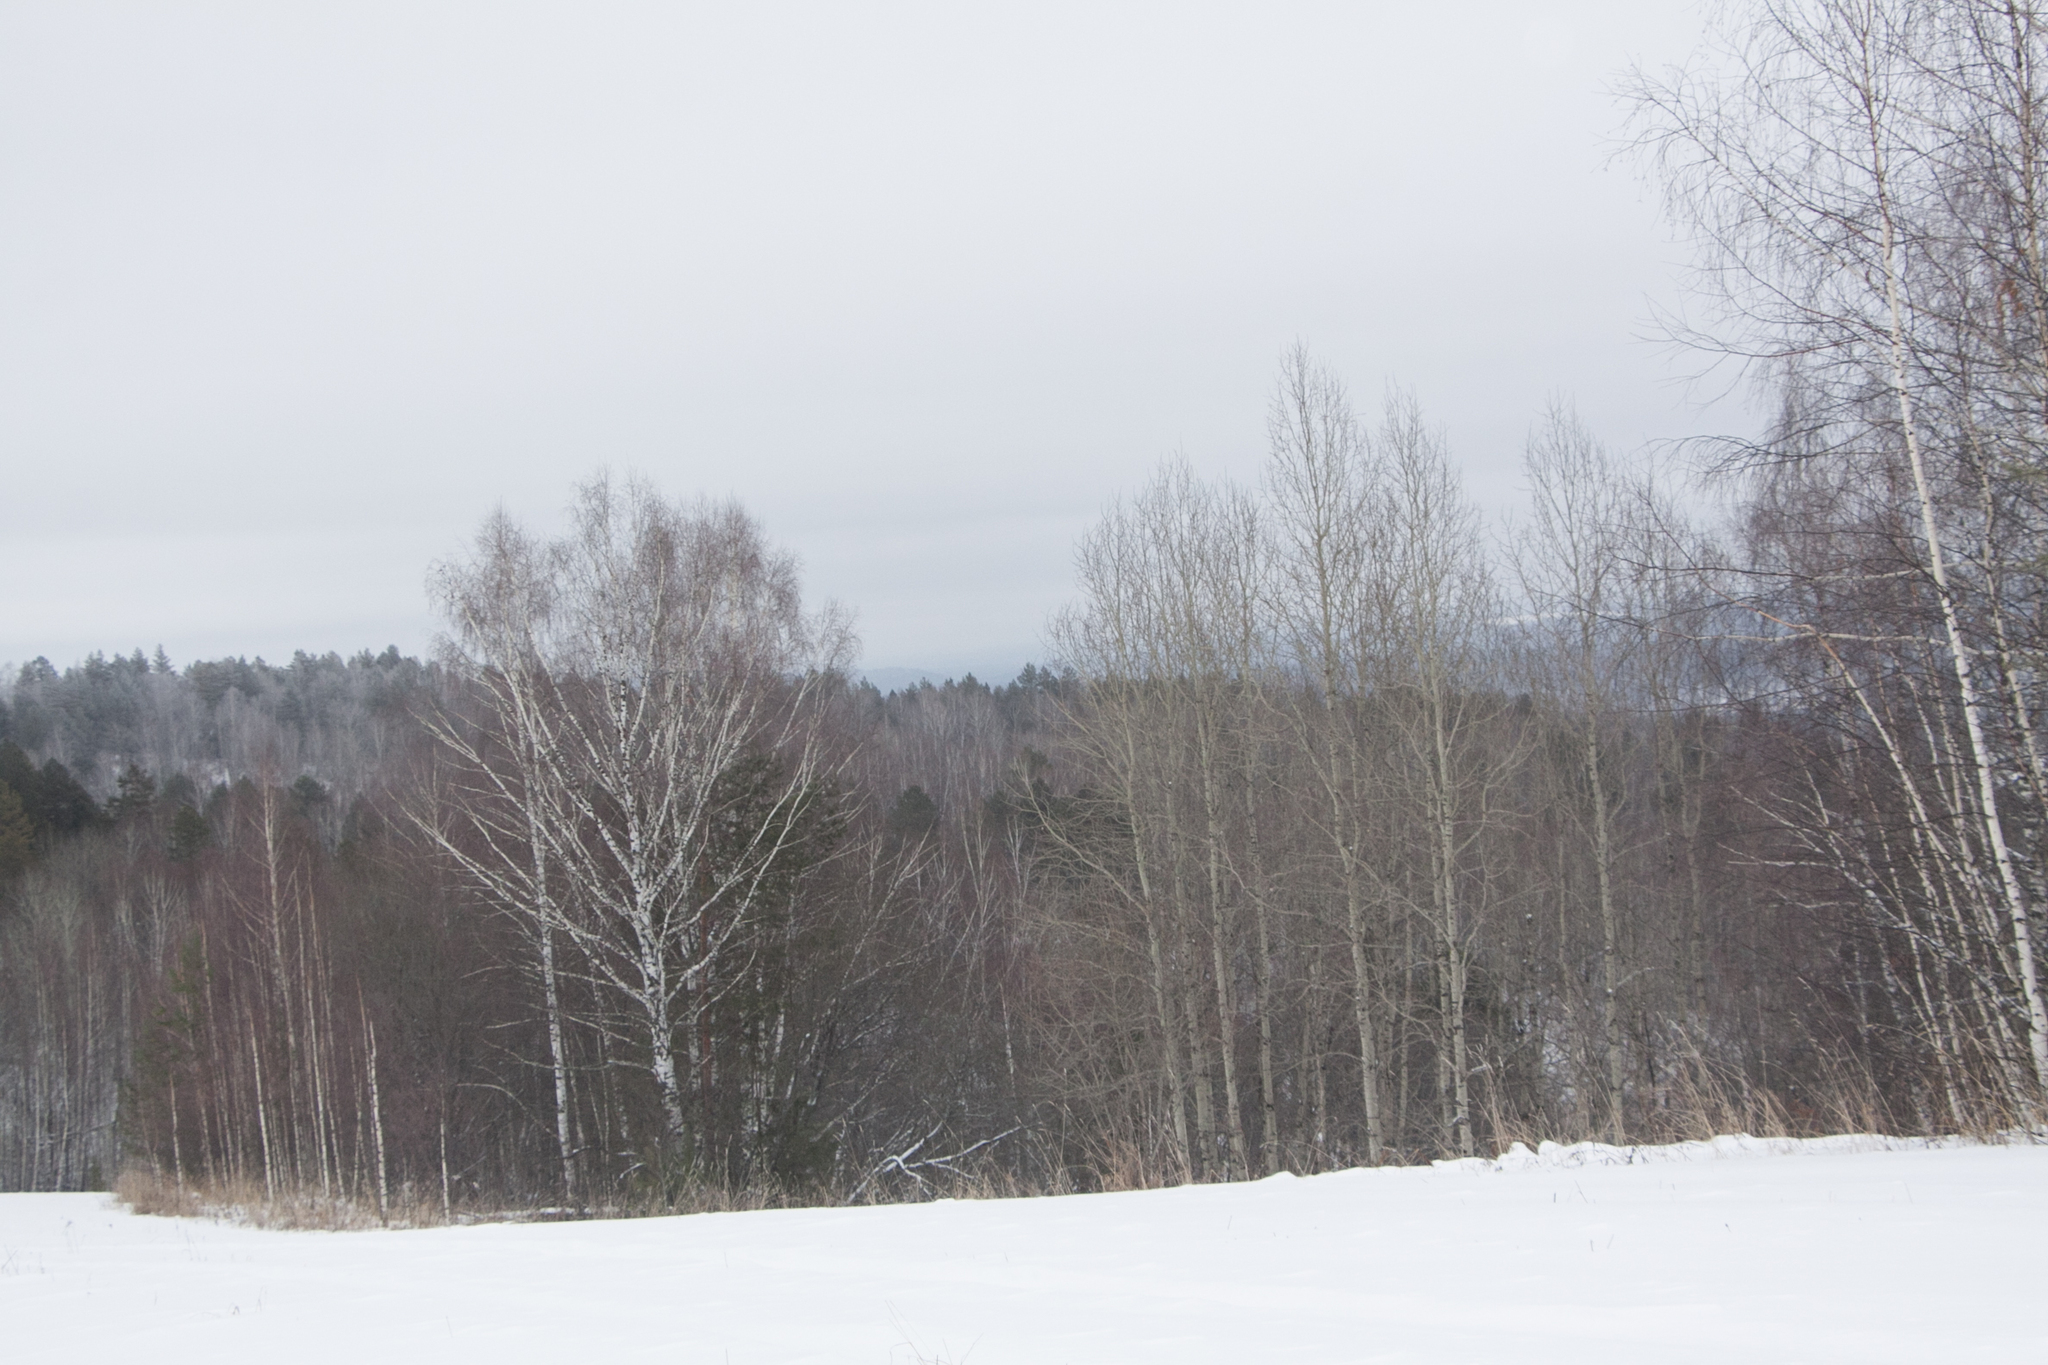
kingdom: Plantae
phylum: Tracheophyta
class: Magnoliopsida
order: Fagales
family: Betulaceae
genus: Betula
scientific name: Betula pendula
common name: Silver birch
